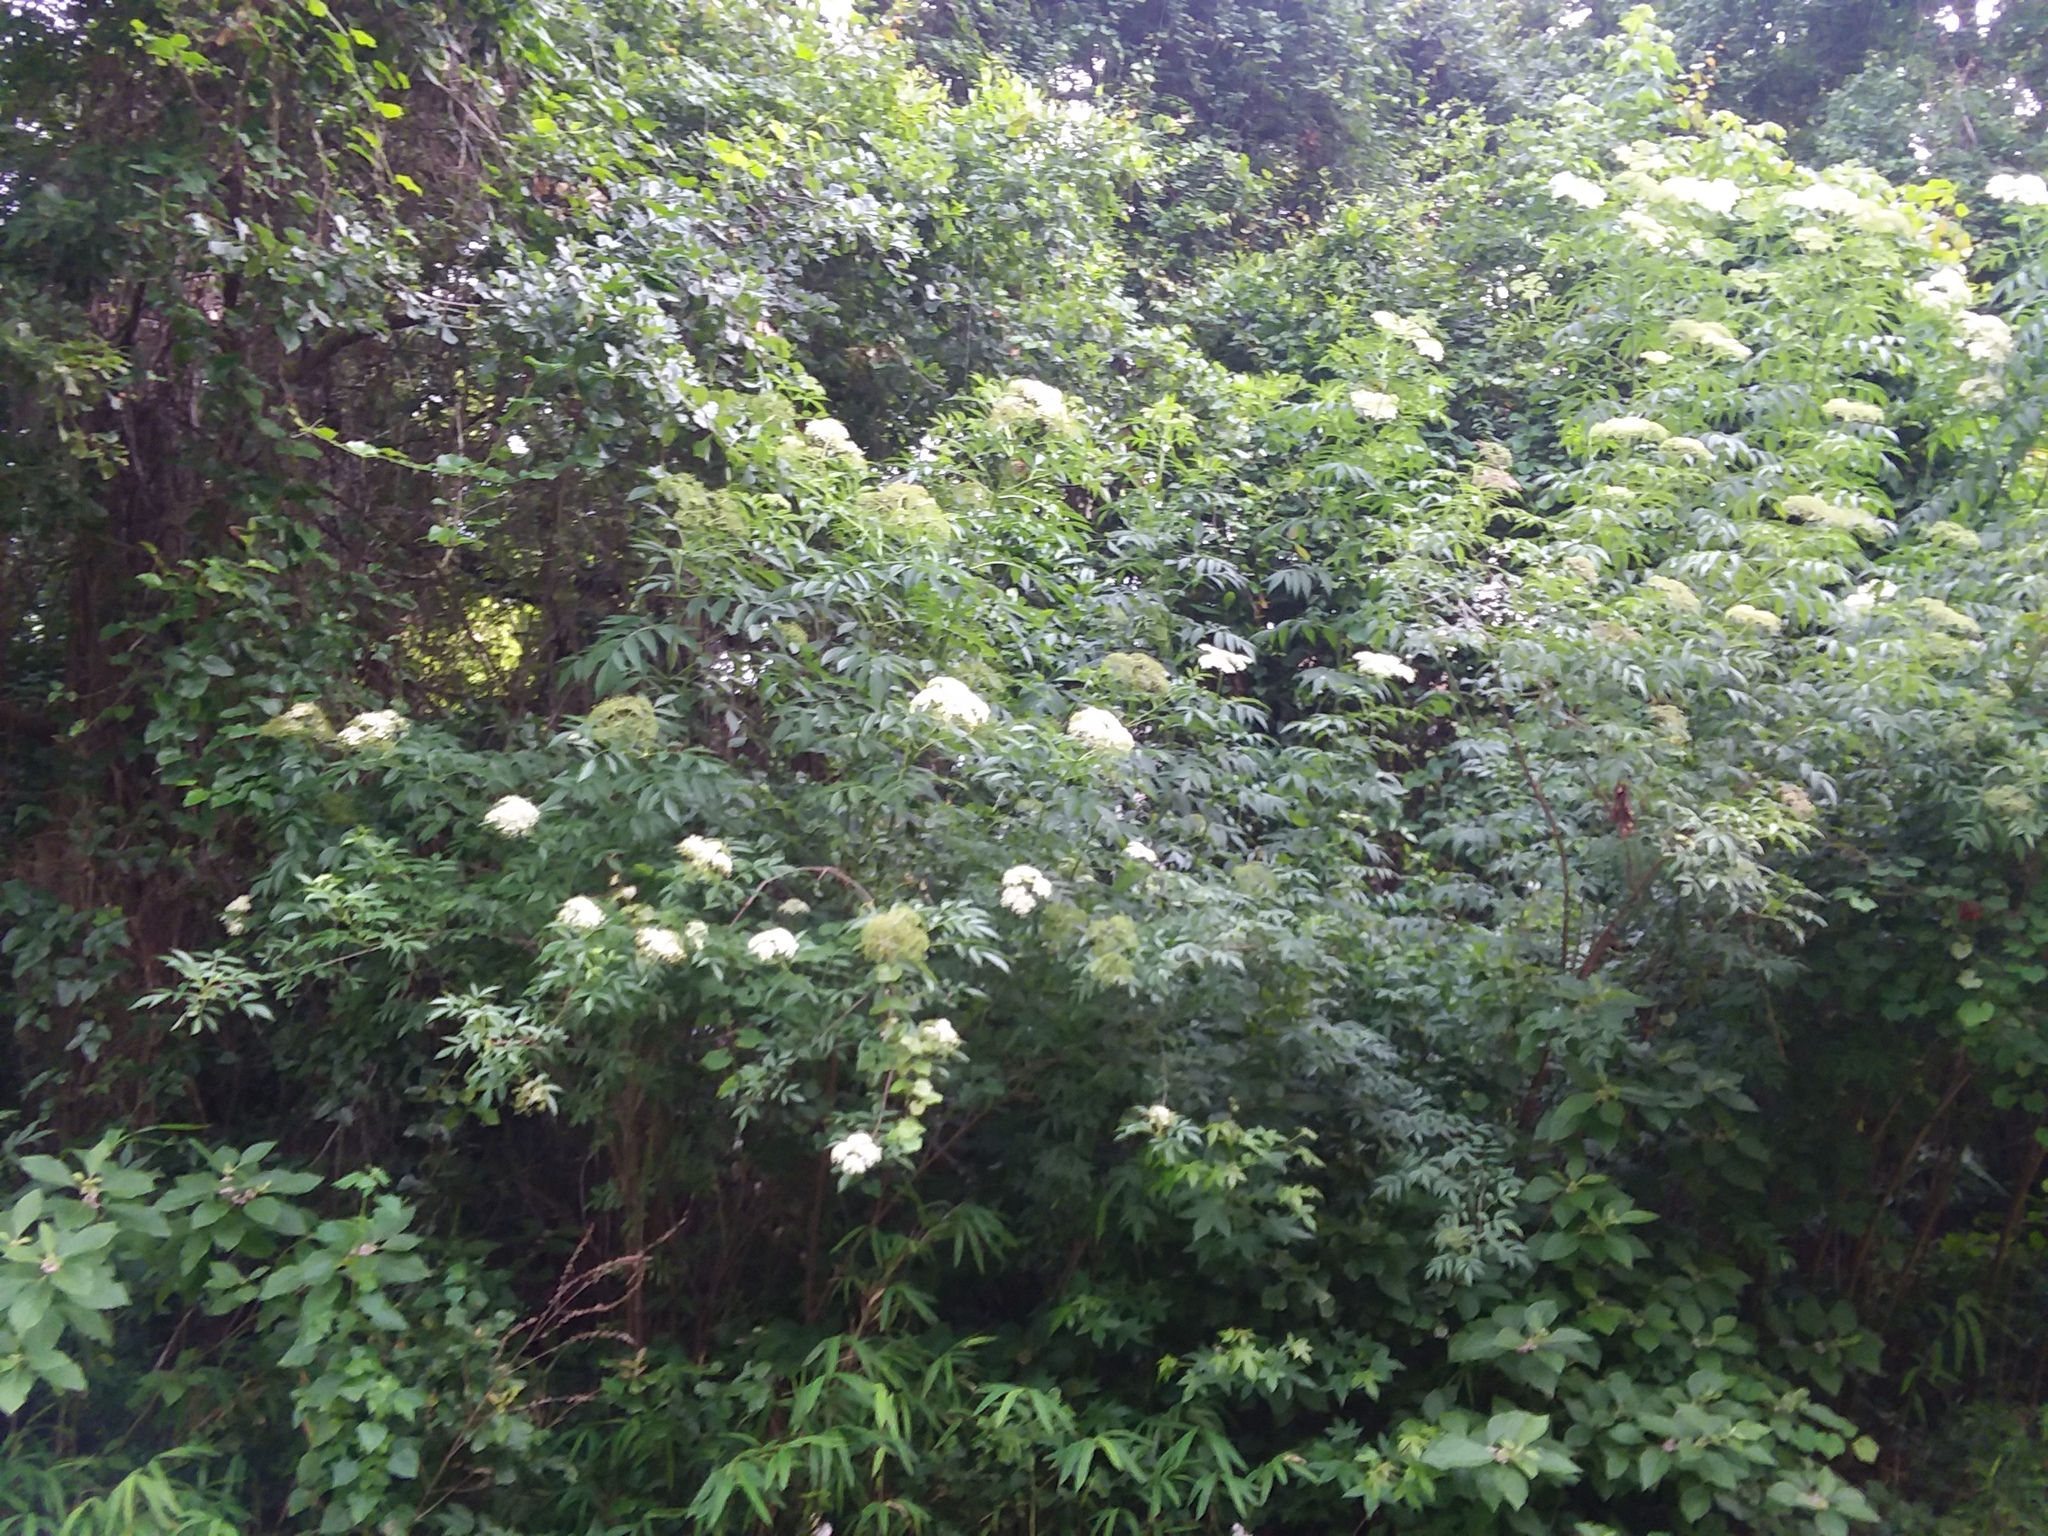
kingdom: Plantae
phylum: Tracheophyta
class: Magnoliopsida
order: Dipsacales
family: Viburnaceae
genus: Sambucus
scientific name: Sambucus canadensis
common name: American elder
